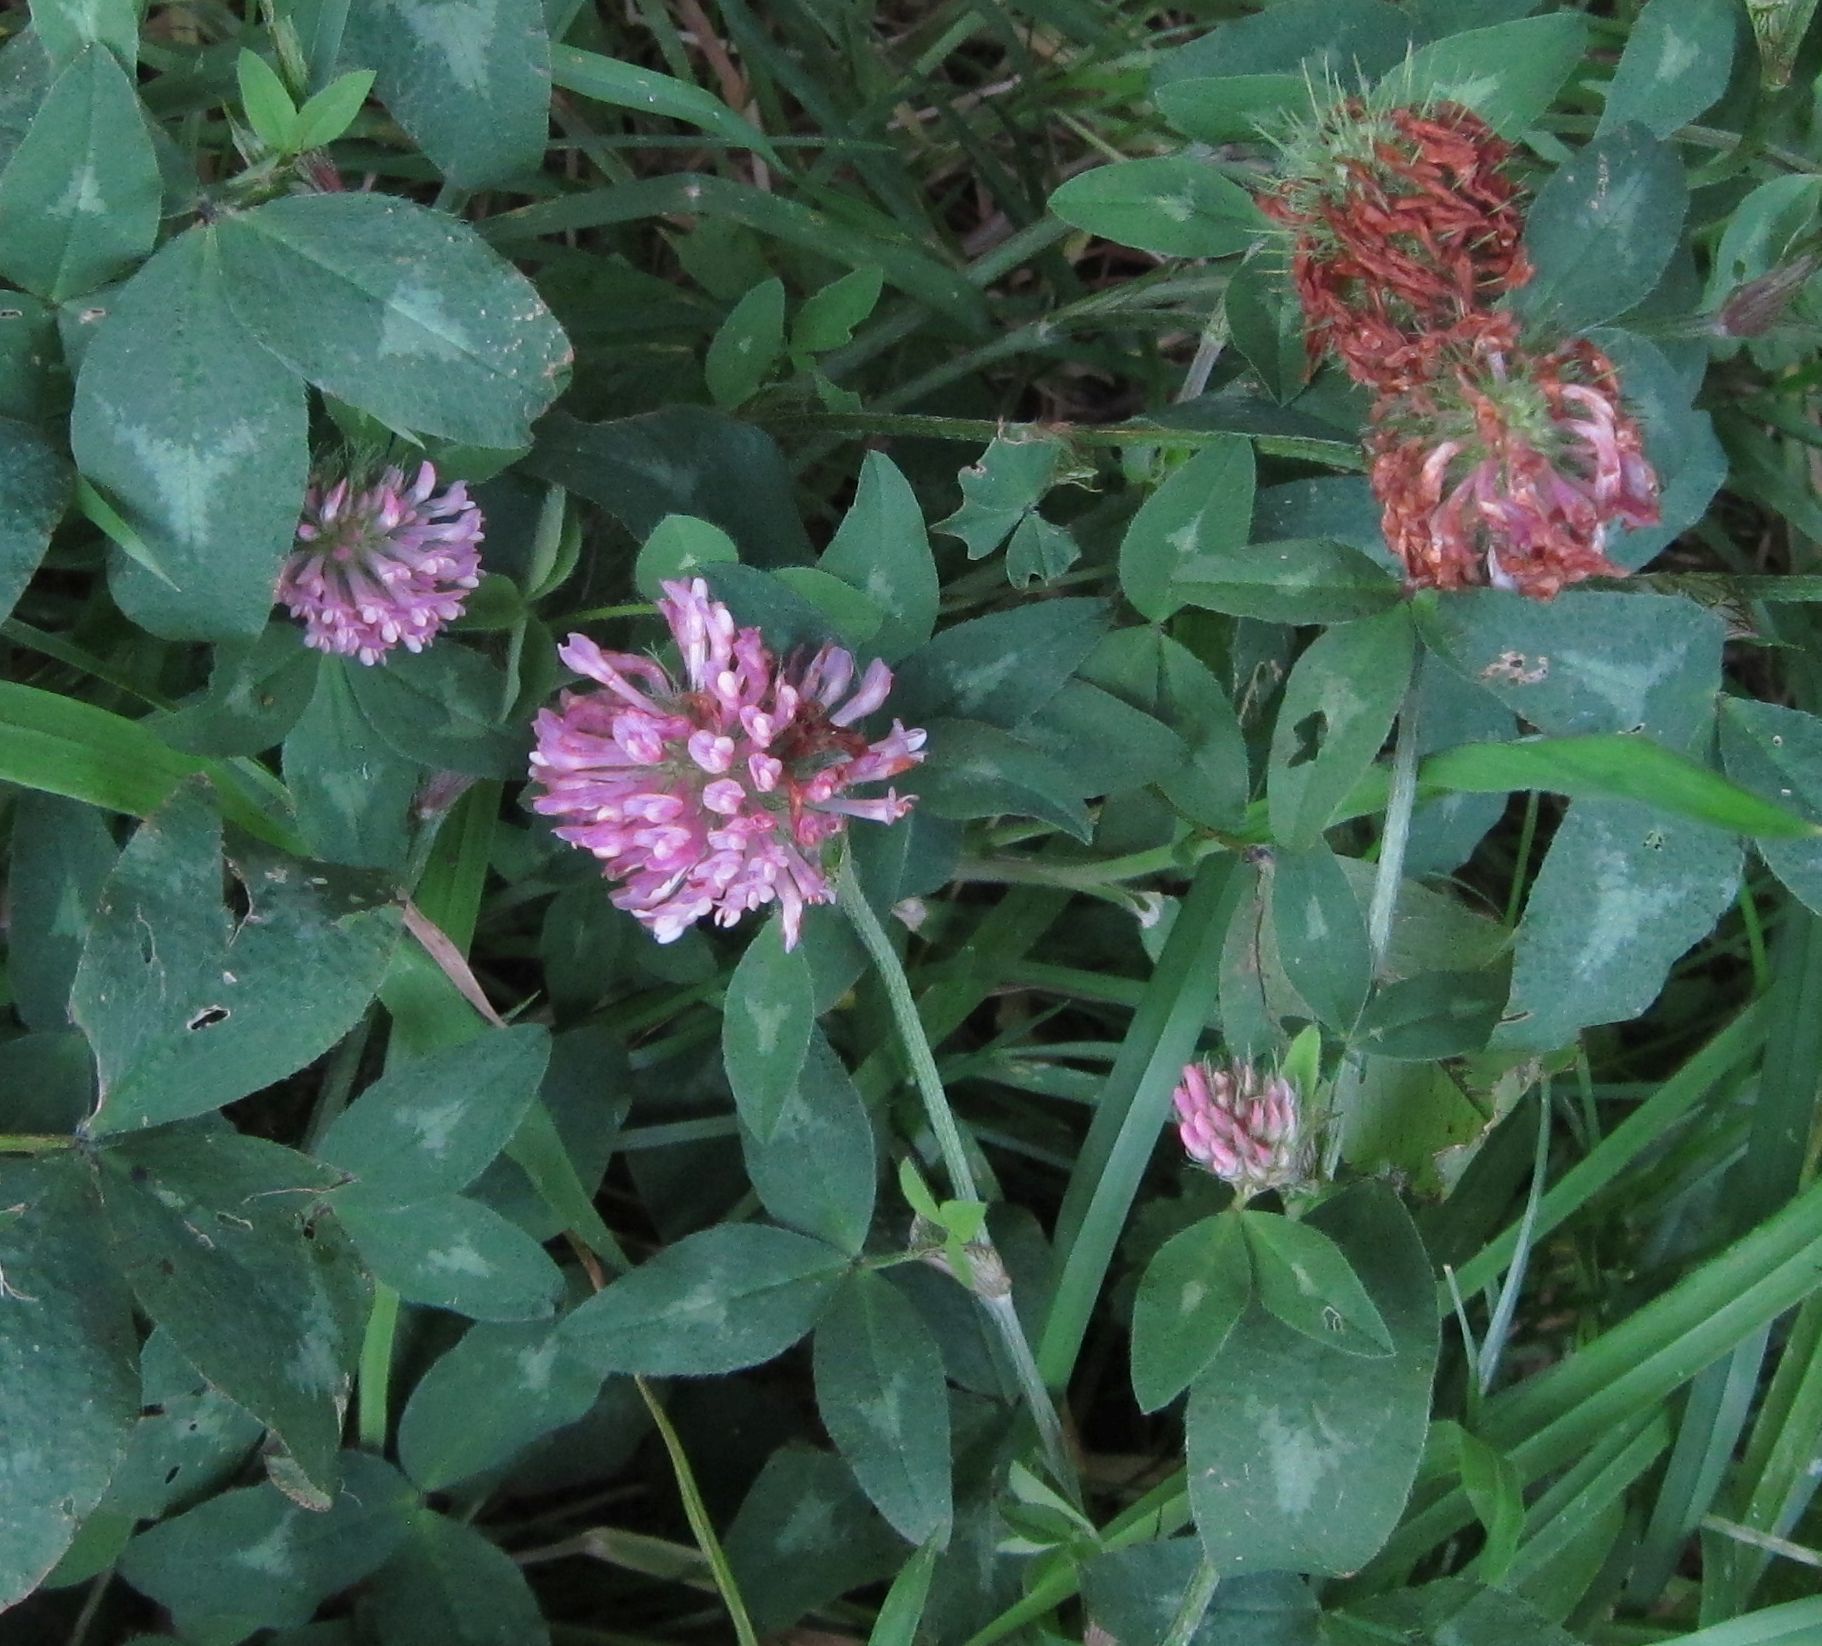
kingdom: Plantae
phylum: Tracheophyta
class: Magnoliopsida
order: Fabales
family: Fabaceae
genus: Trifolium
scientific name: Trifolium pratense
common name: Red clover
